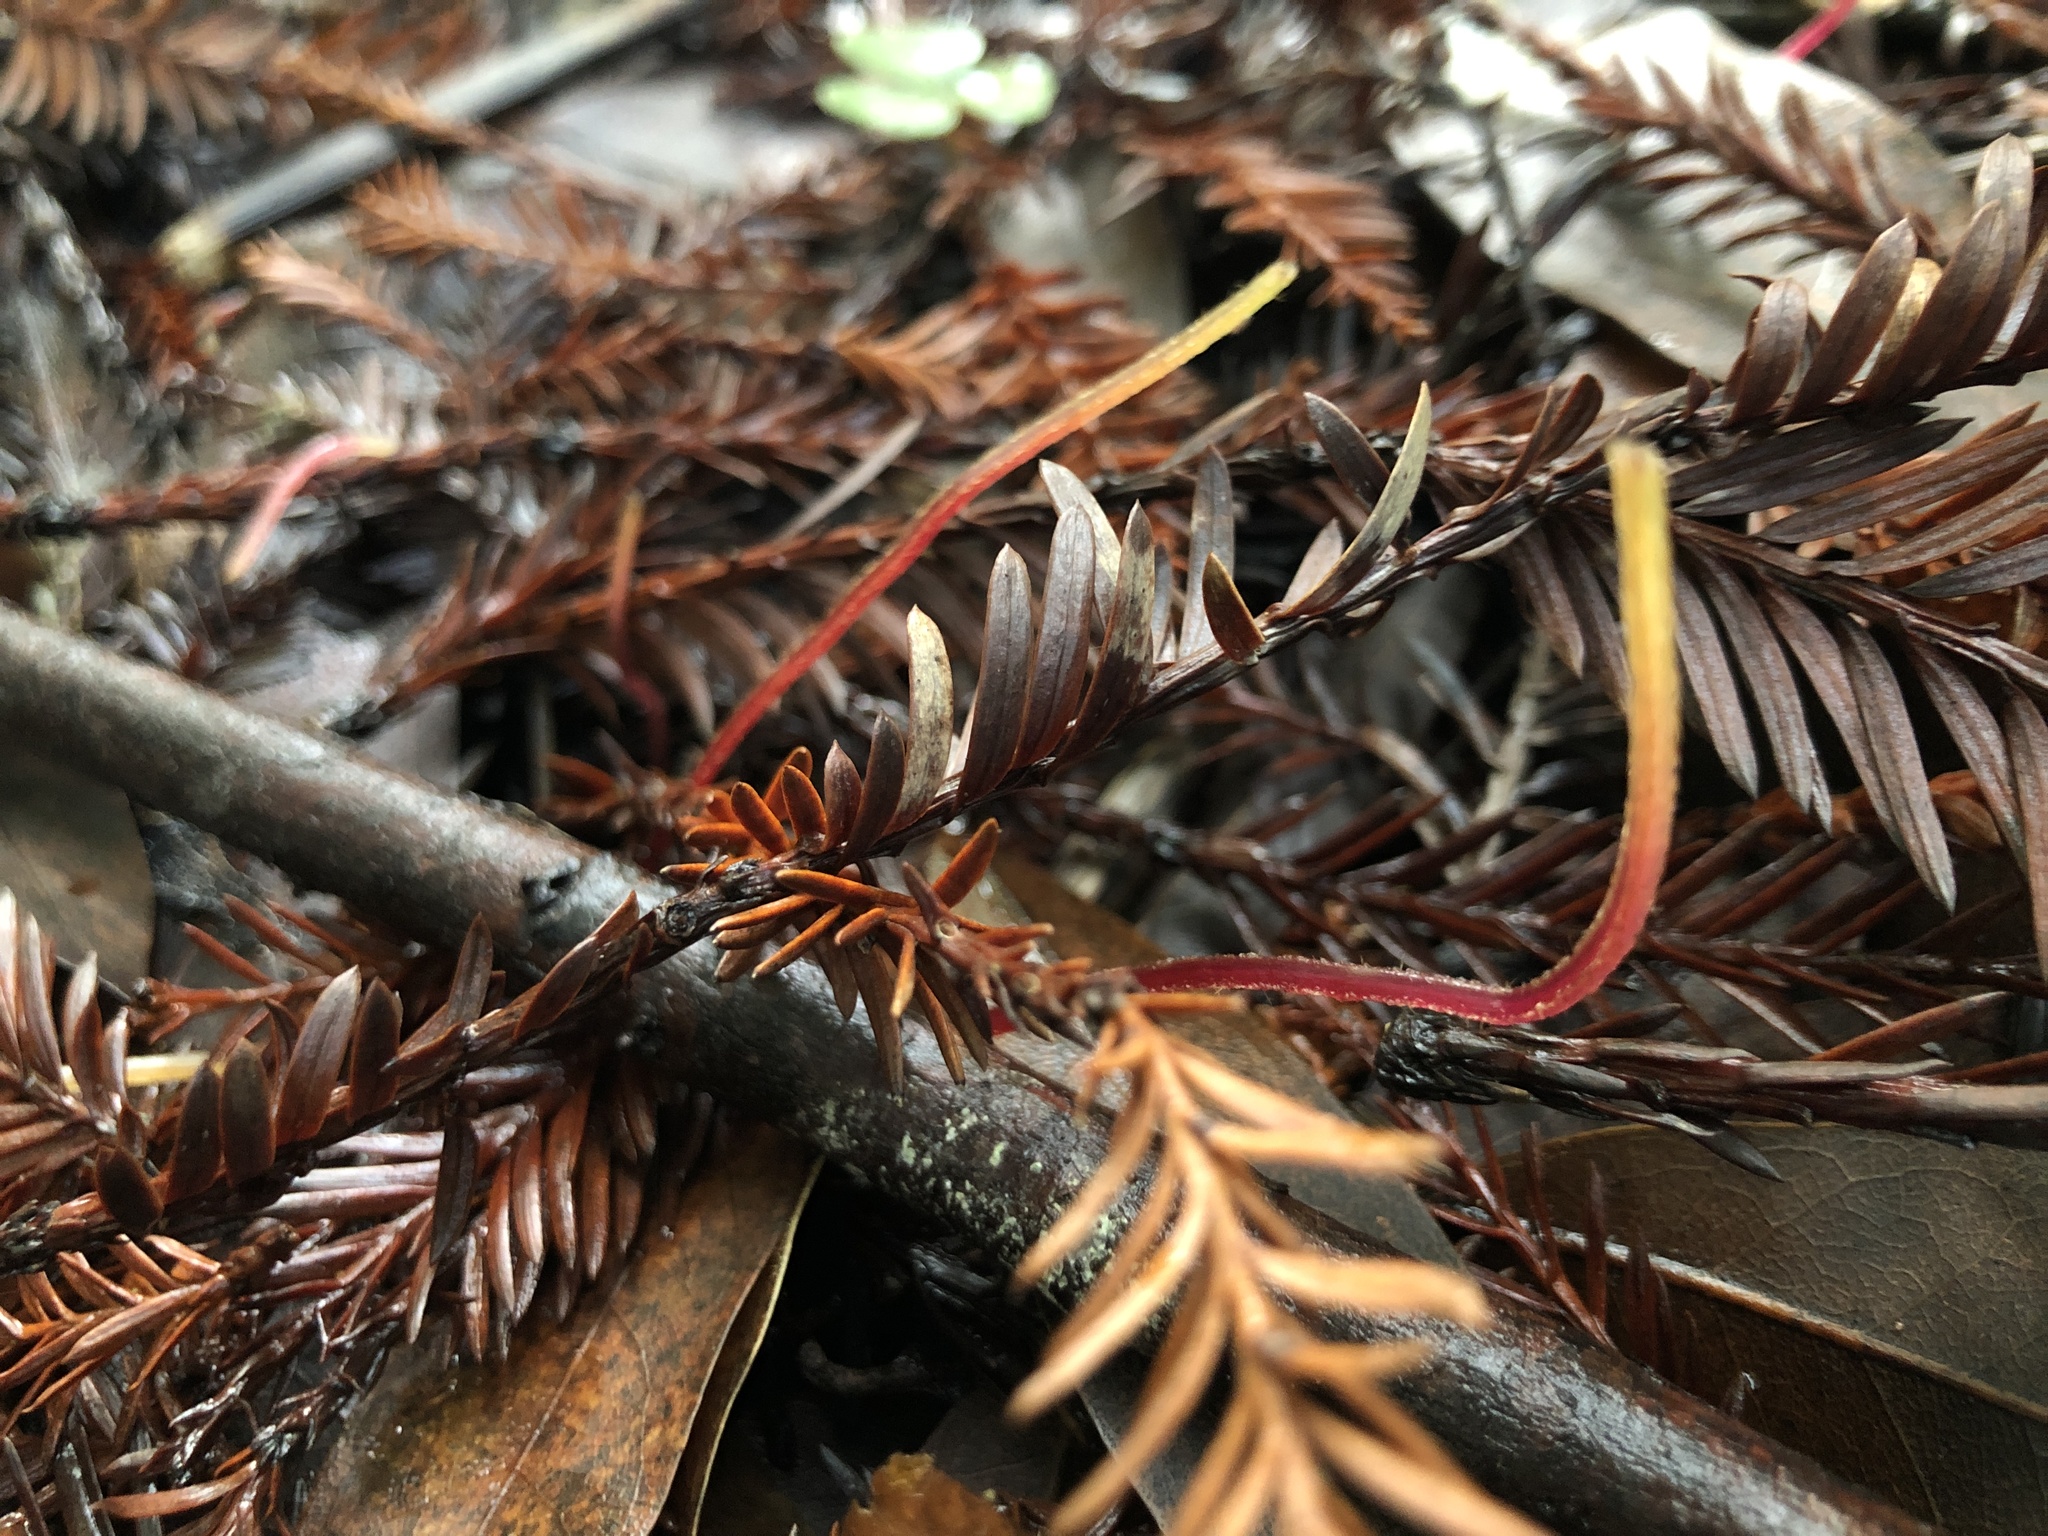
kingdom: Plantae
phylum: Tracheophyta
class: Magnoliopsida
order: Oxalidales
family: Oxalidaceae
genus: Oxalis
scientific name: Oxalis oregana
